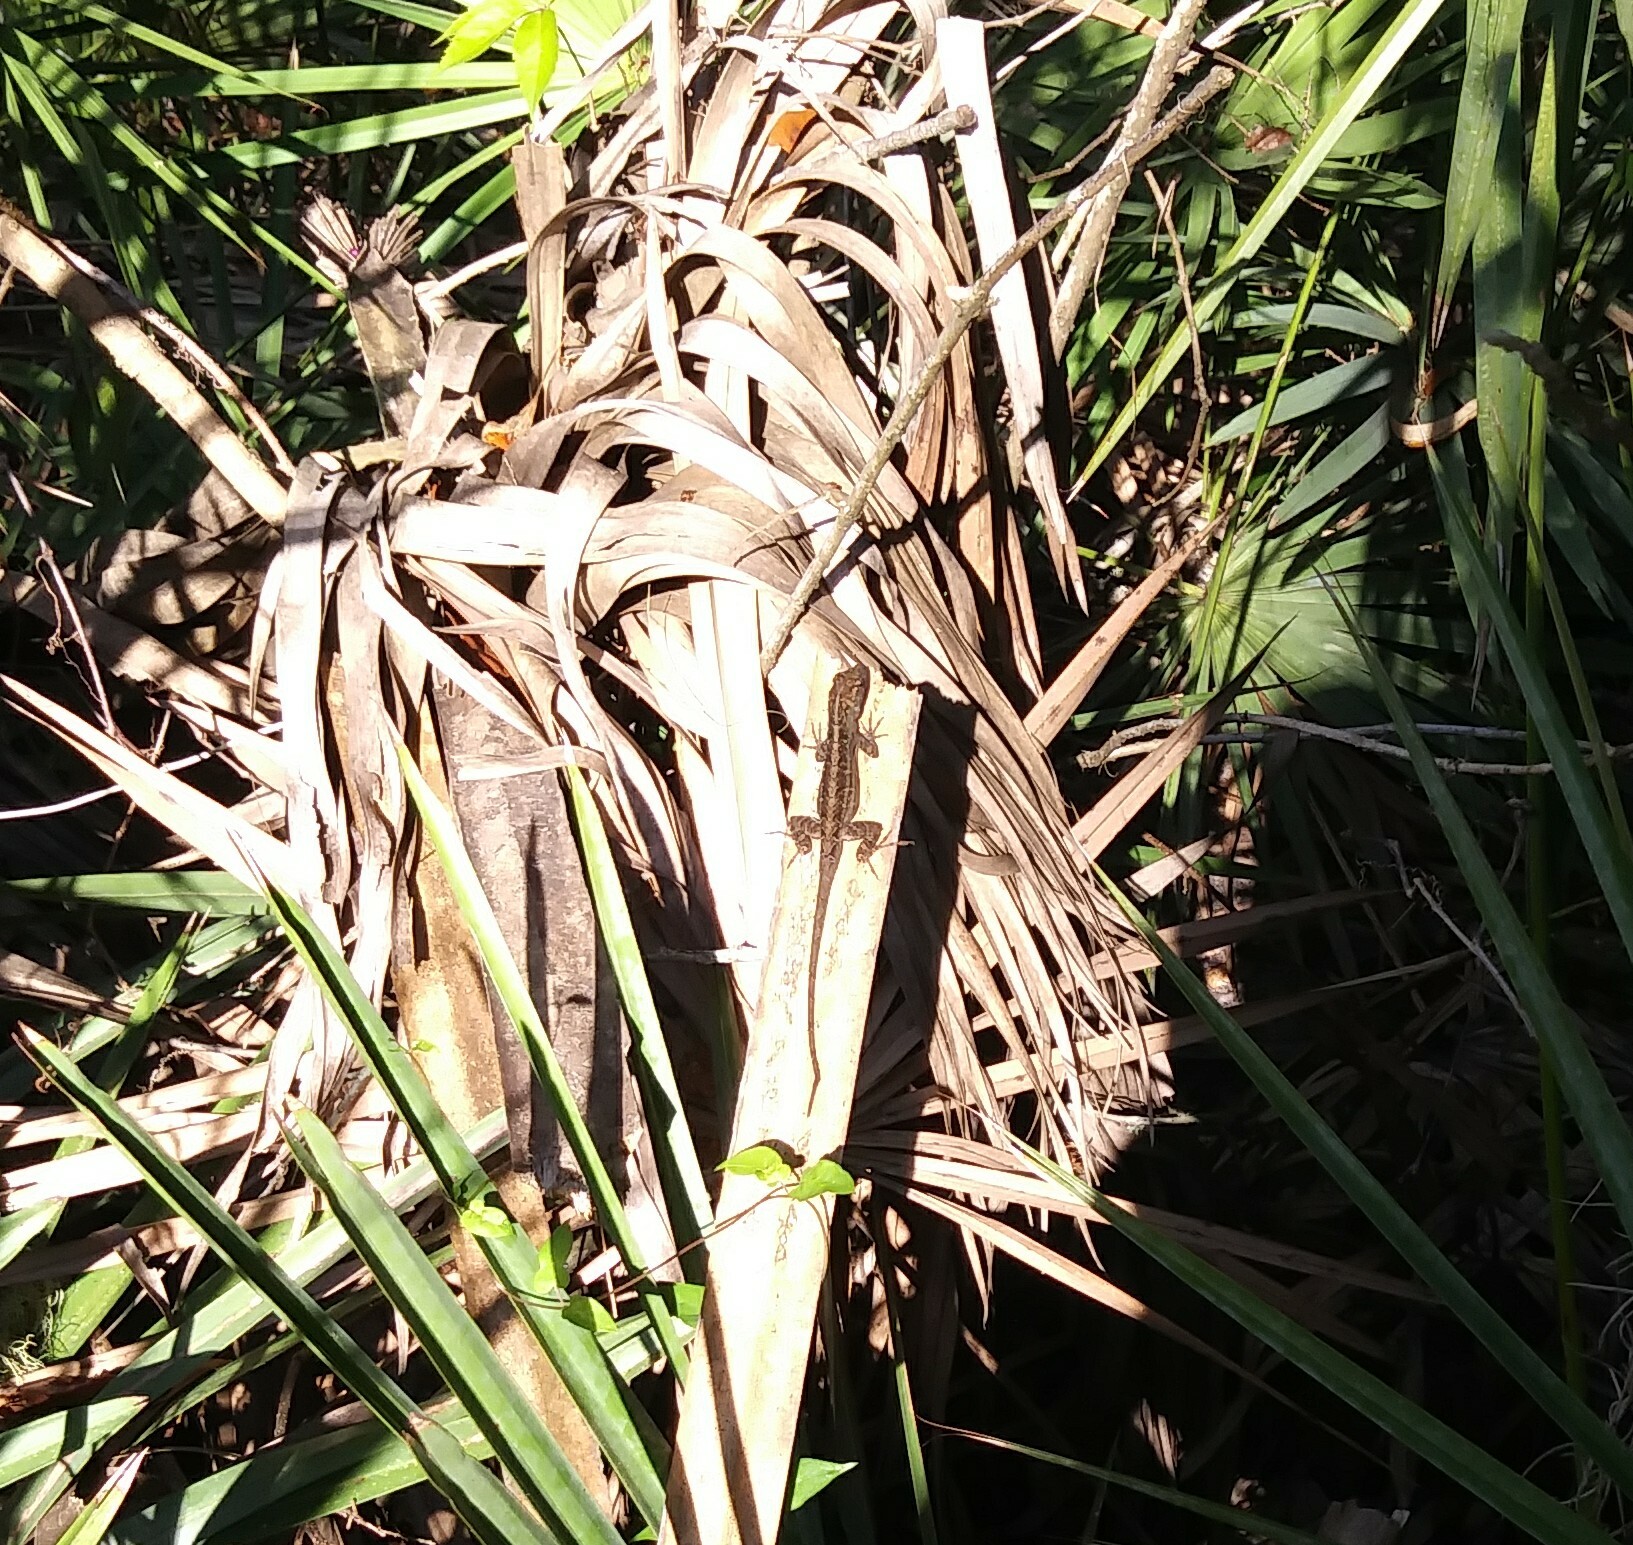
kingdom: Animalia
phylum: Chordata
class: Squamata
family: Dactyloidae
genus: Anolis
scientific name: Anolis sagrei
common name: Brown anole
